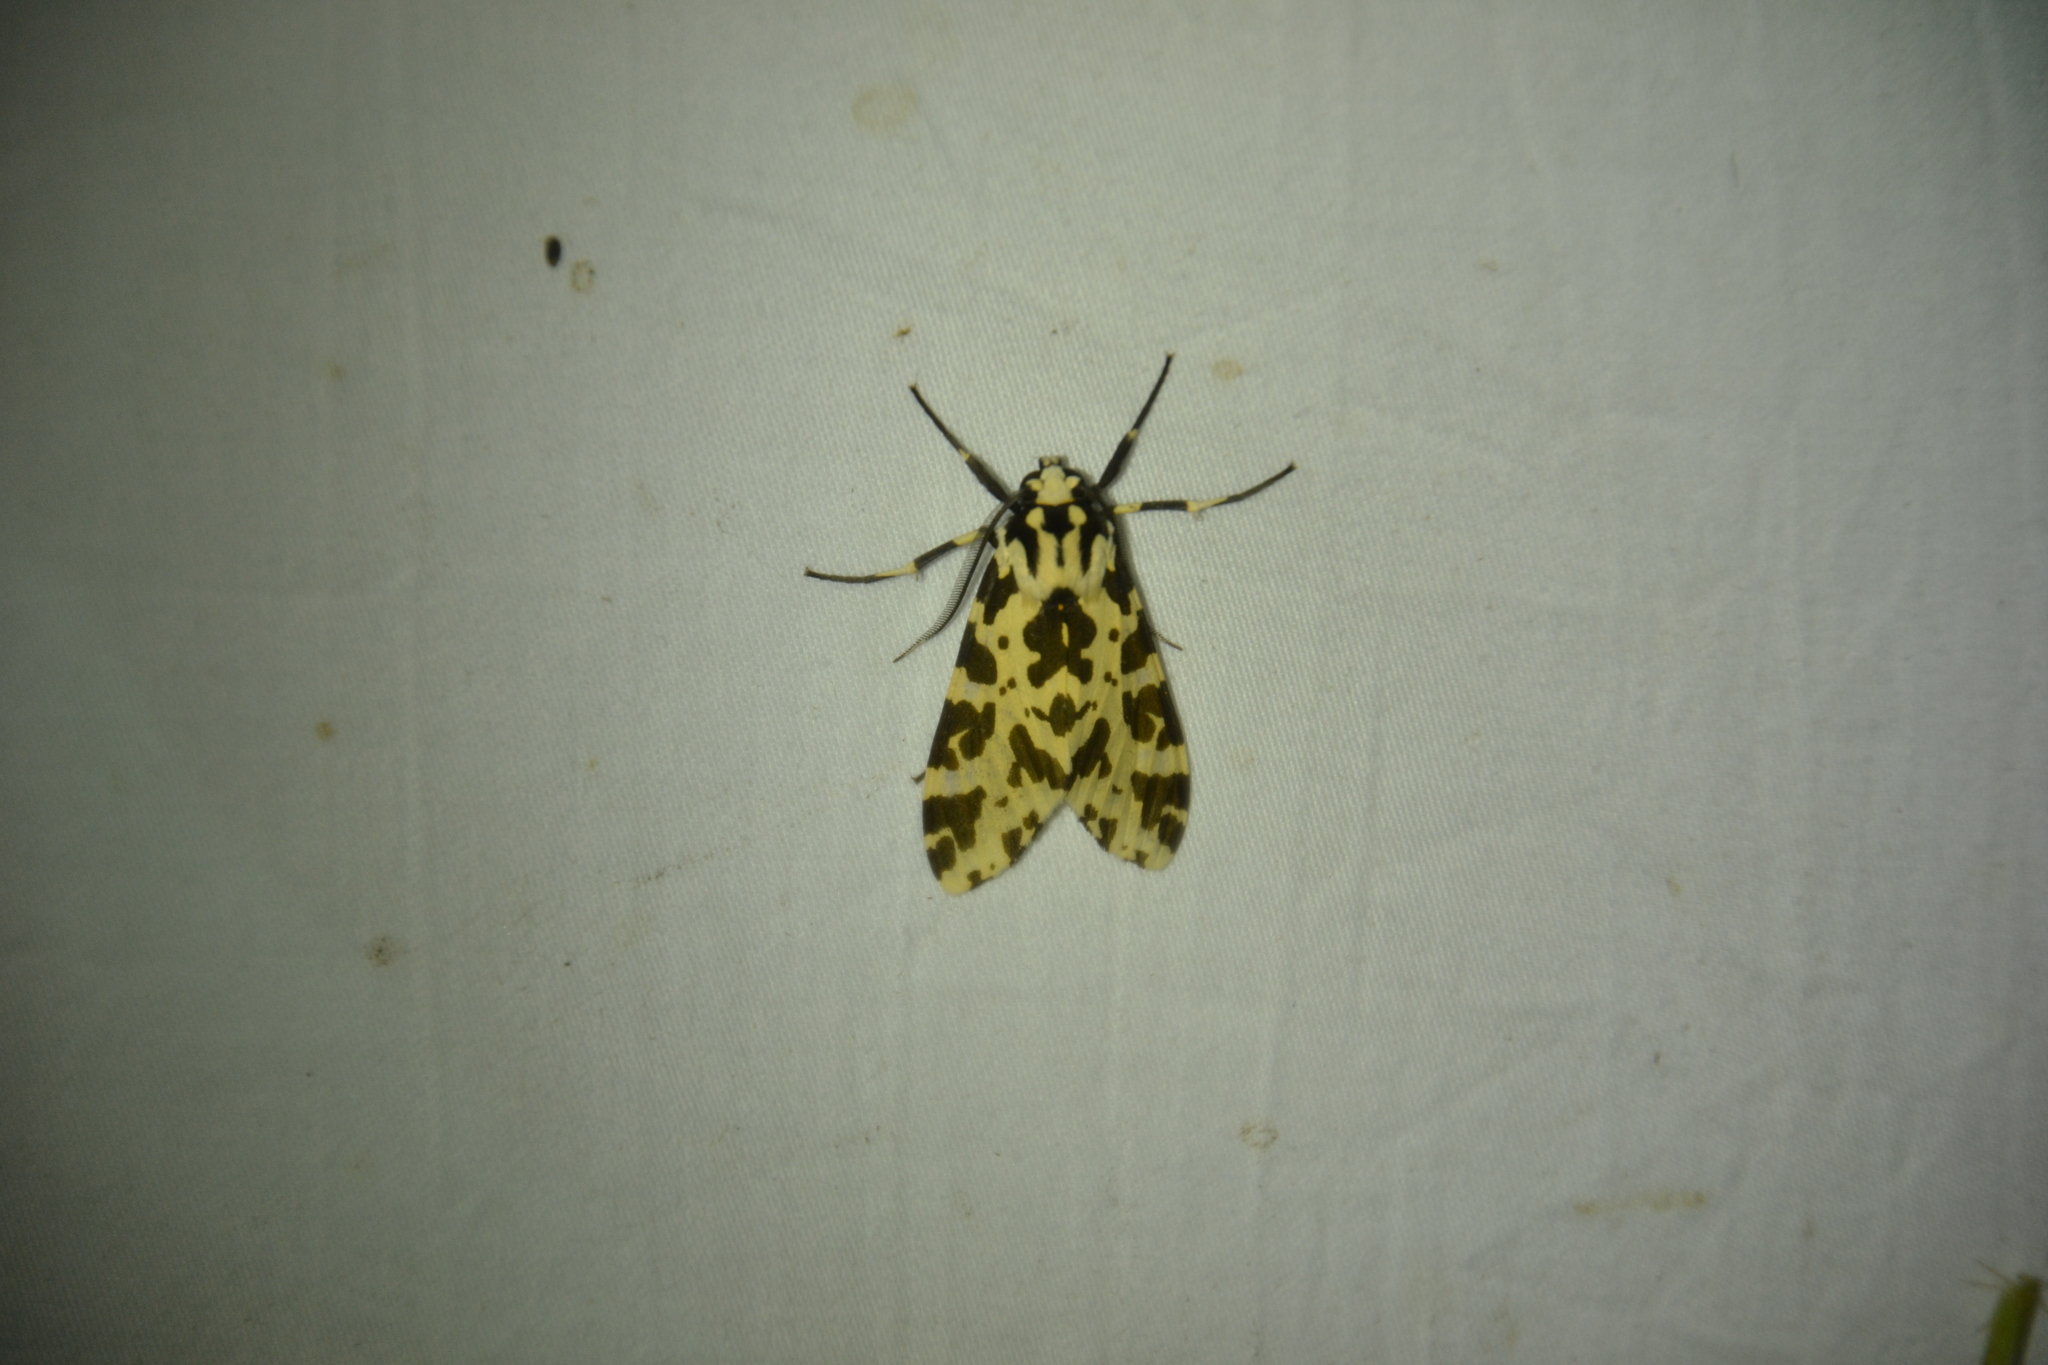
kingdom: Animalia
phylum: Arthropoda
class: Insecta
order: Lepidoptera
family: Erebidae
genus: Eucereon
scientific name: Eucereon consorta
